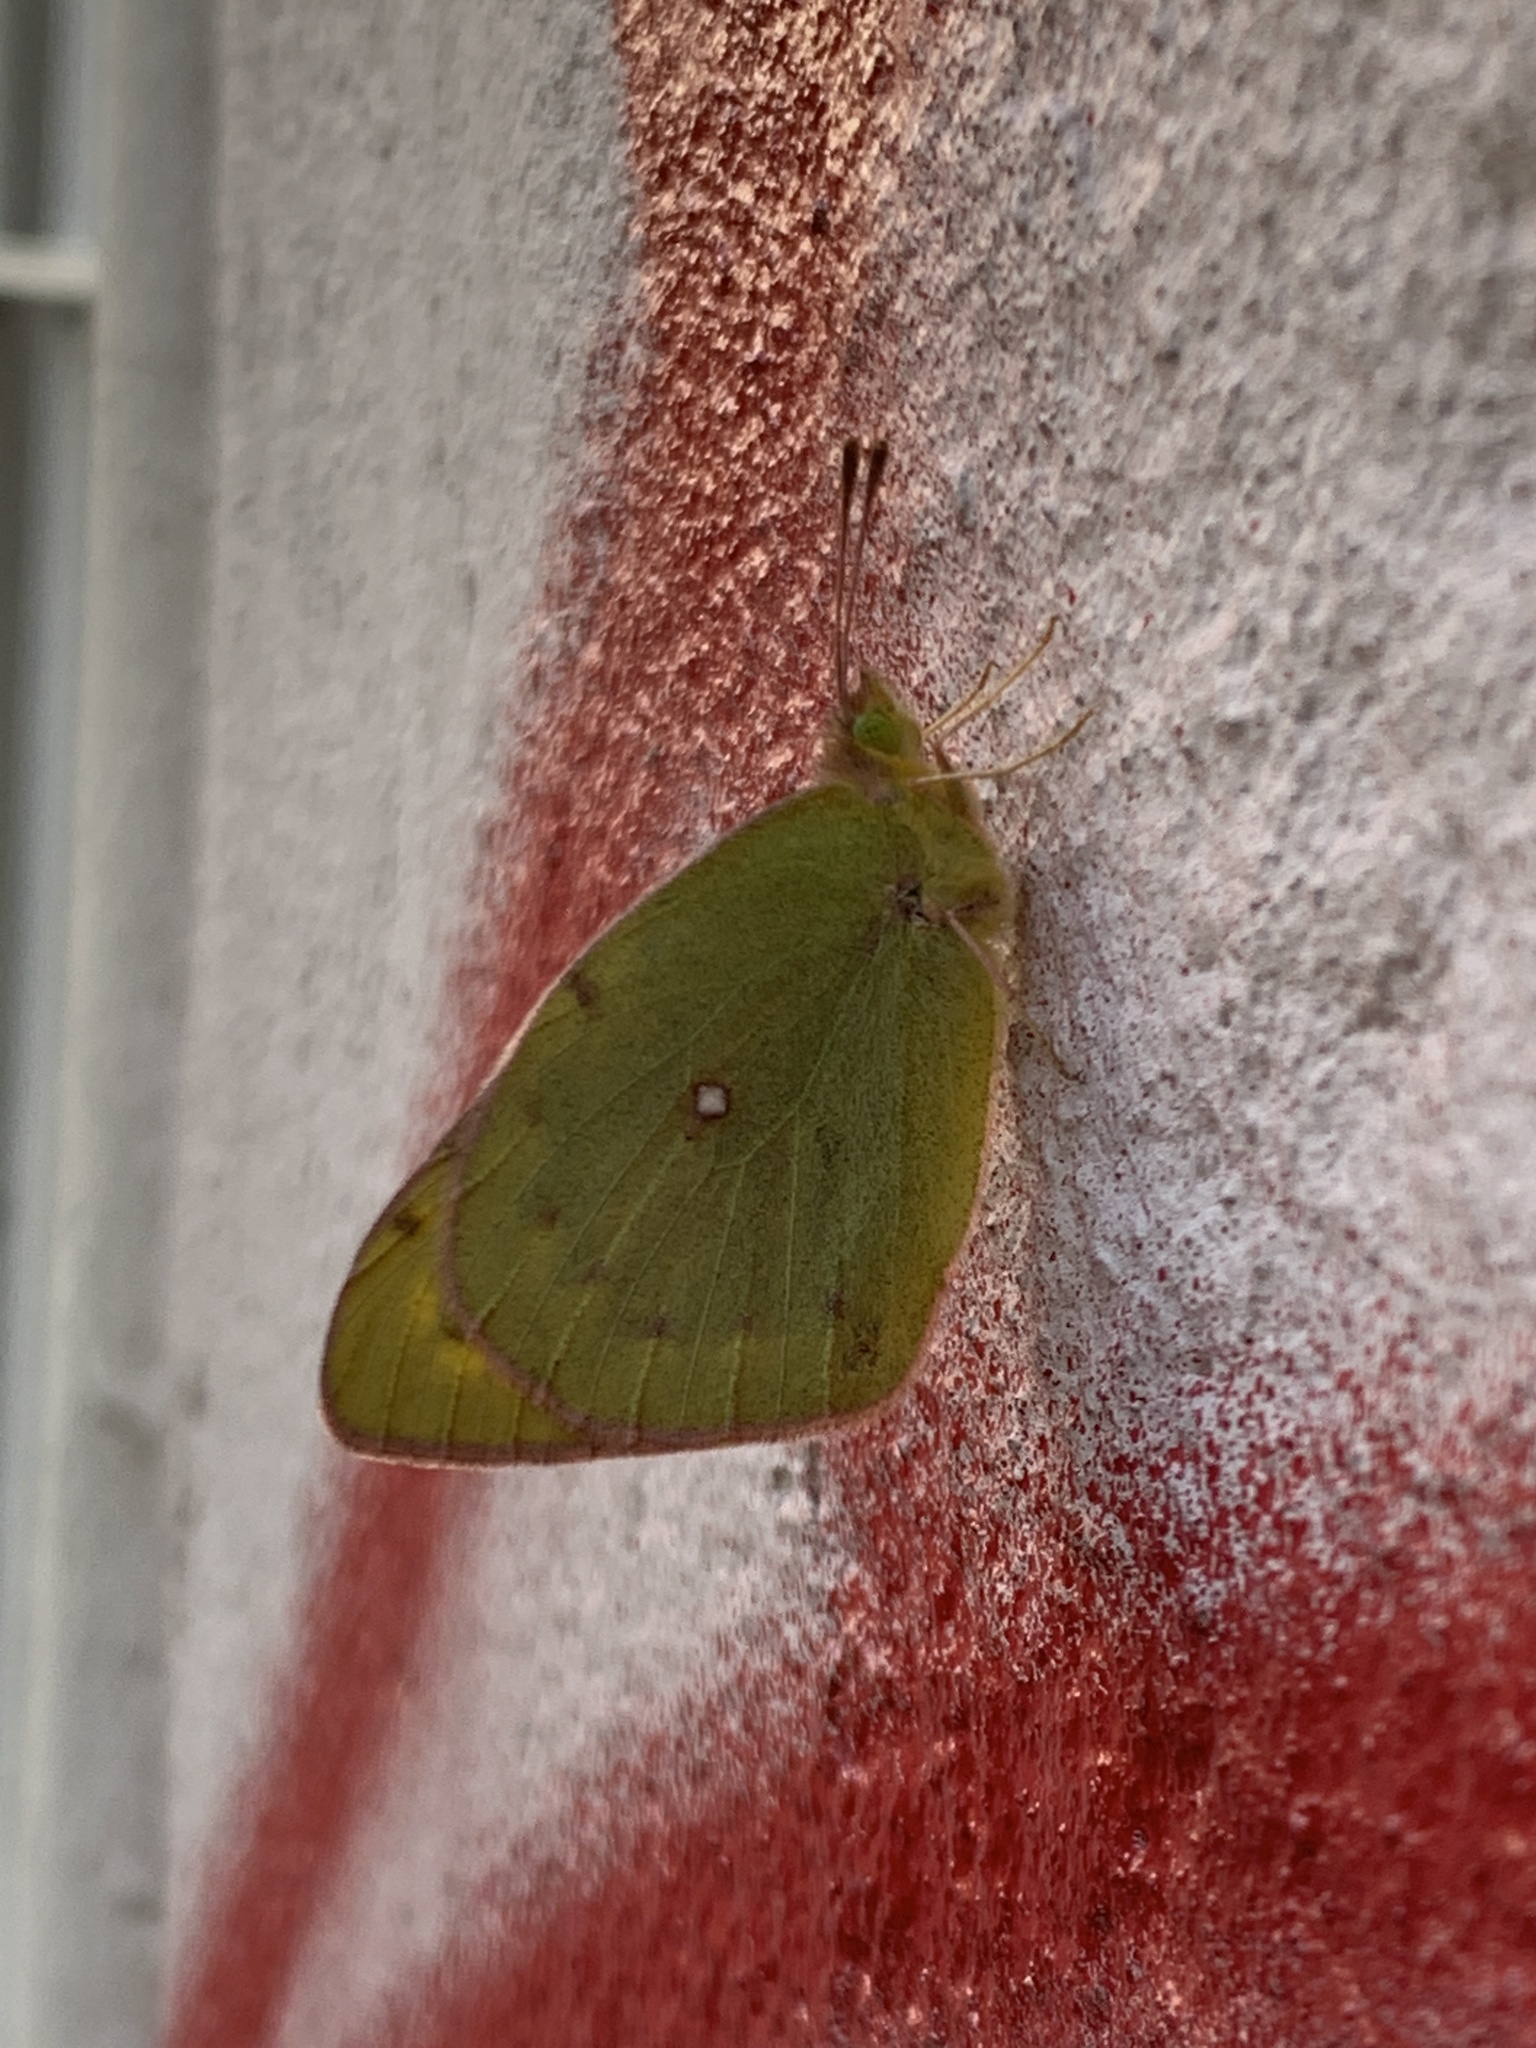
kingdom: Animalia
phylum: Arthropoda
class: Insecta
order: Lepidoptera
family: Pieridae
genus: Colias
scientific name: Colias lesbia
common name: Lesbia clouded yellow
